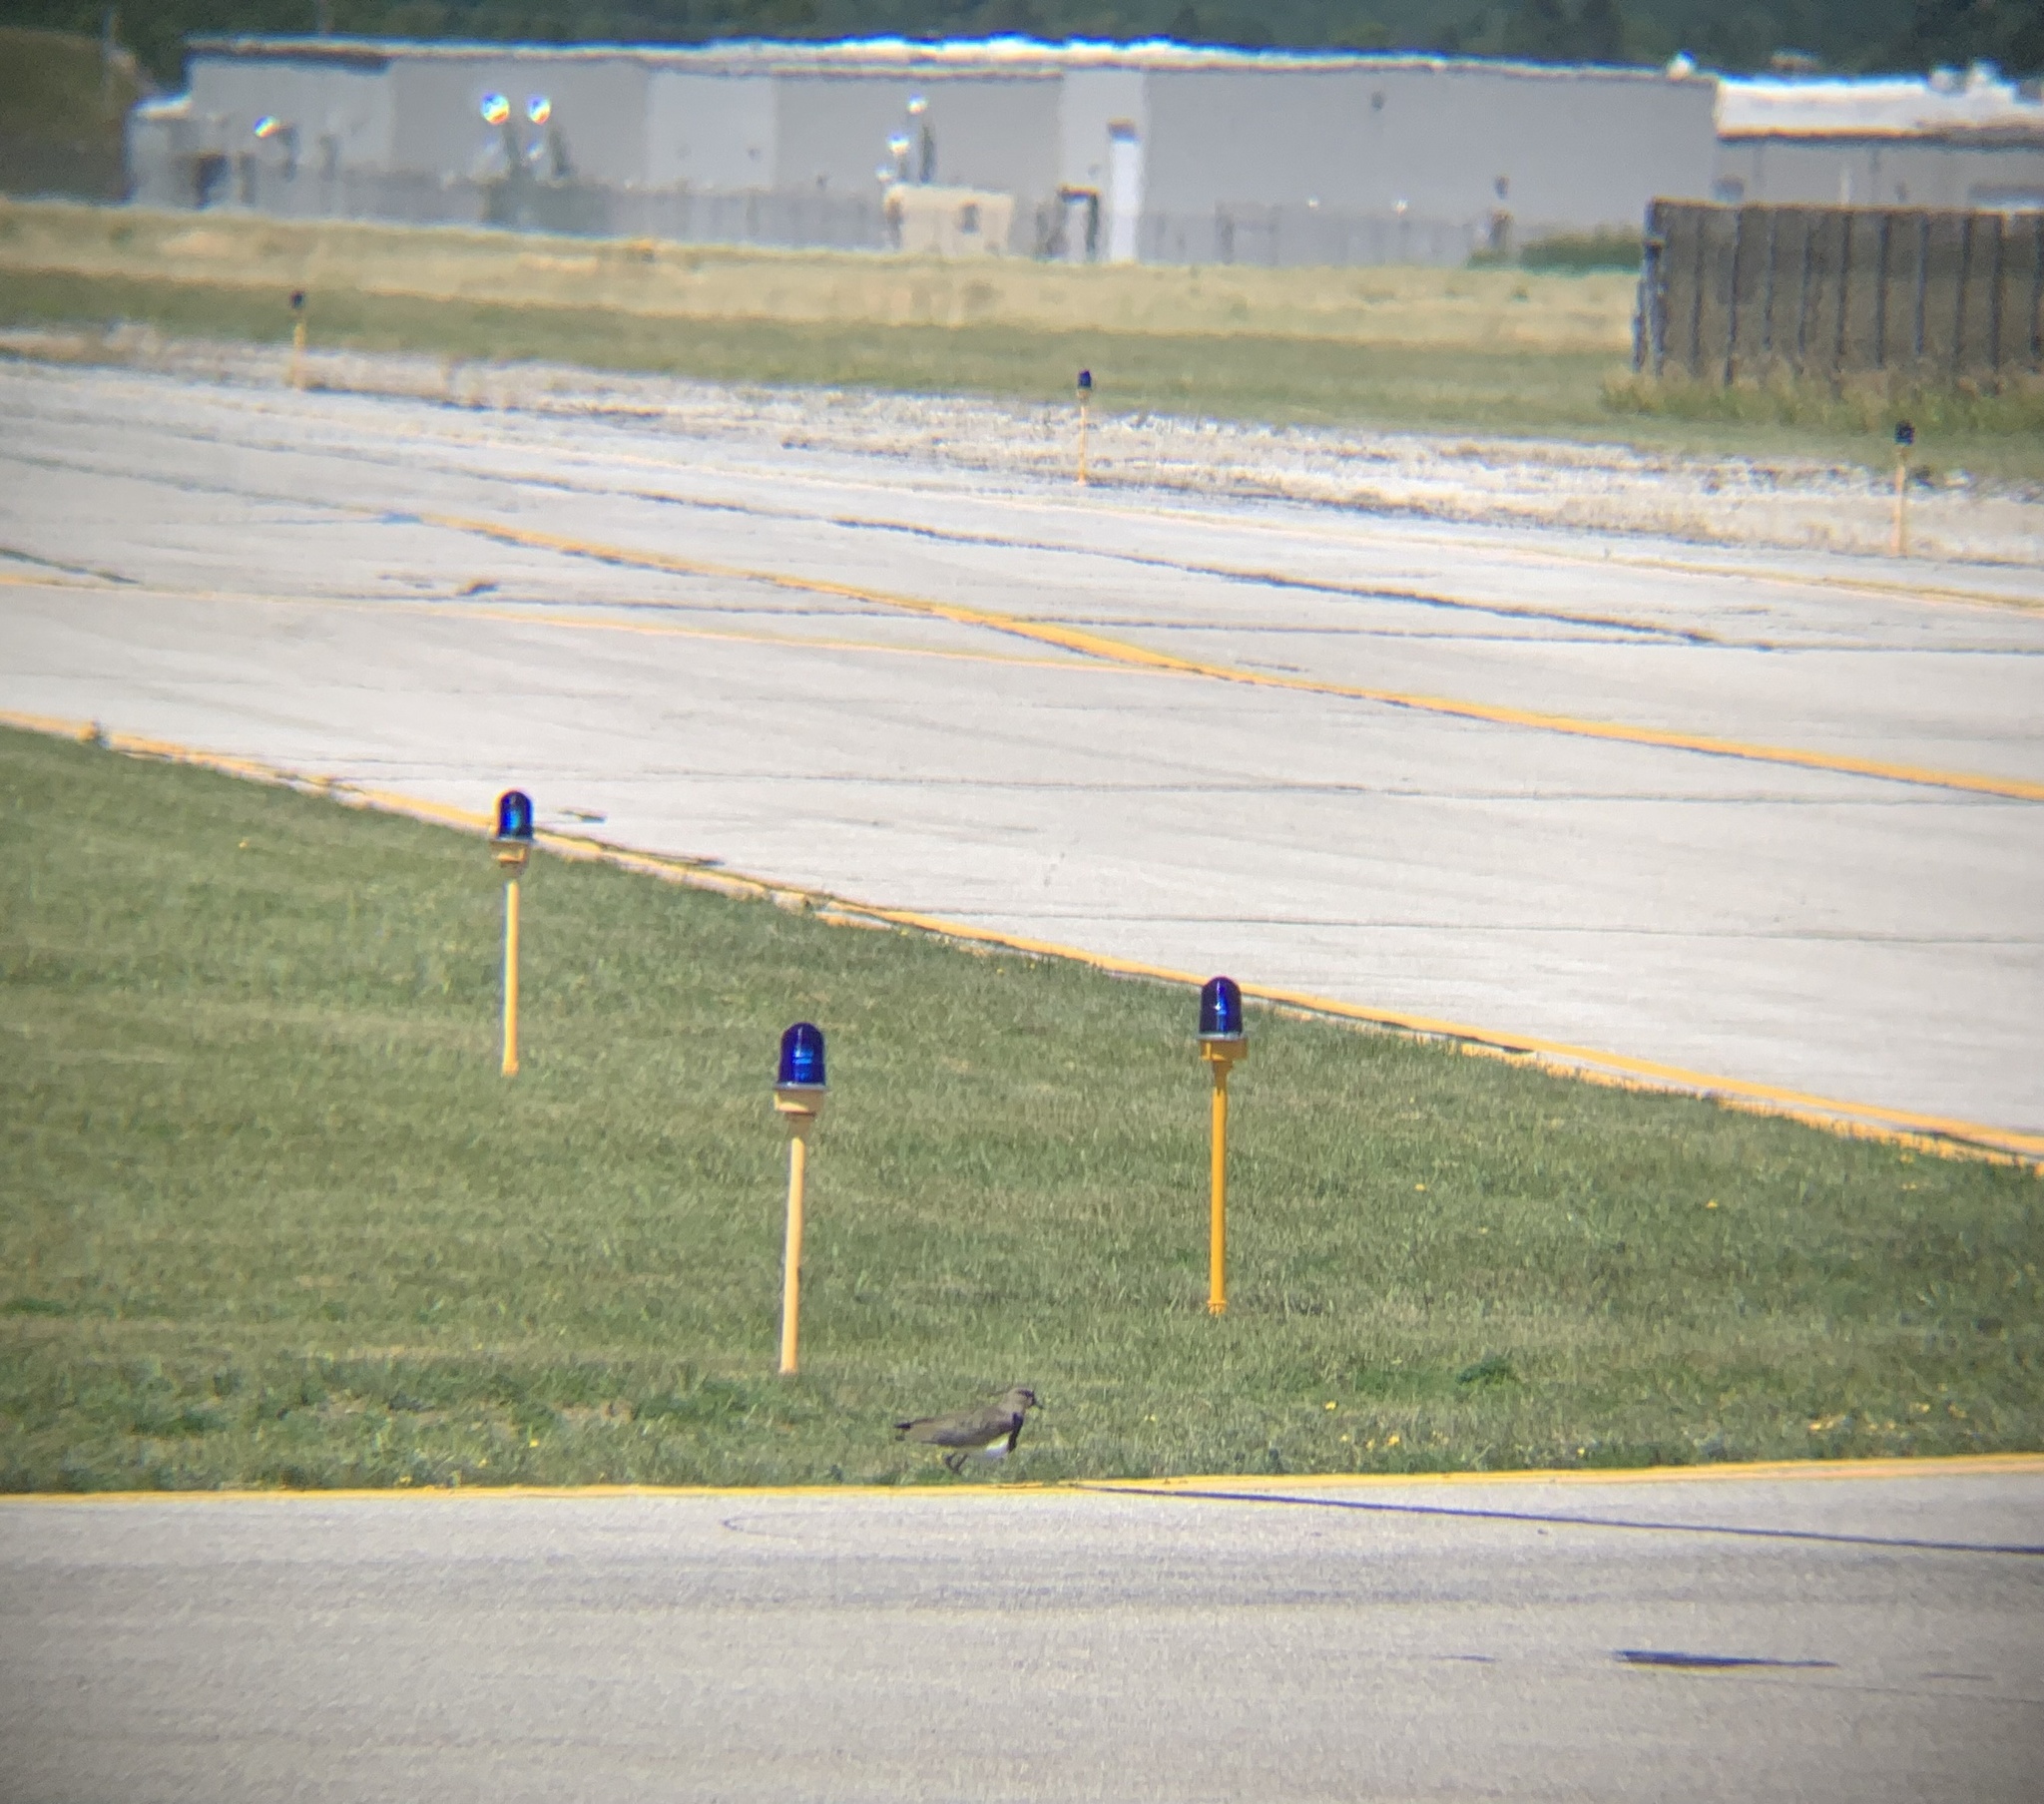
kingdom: Animalia
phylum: Chordata
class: Aves
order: Charadriiformes
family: Charadriidae
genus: Vanellus
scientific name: Vanellus chilensis
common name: Southern lapwing
